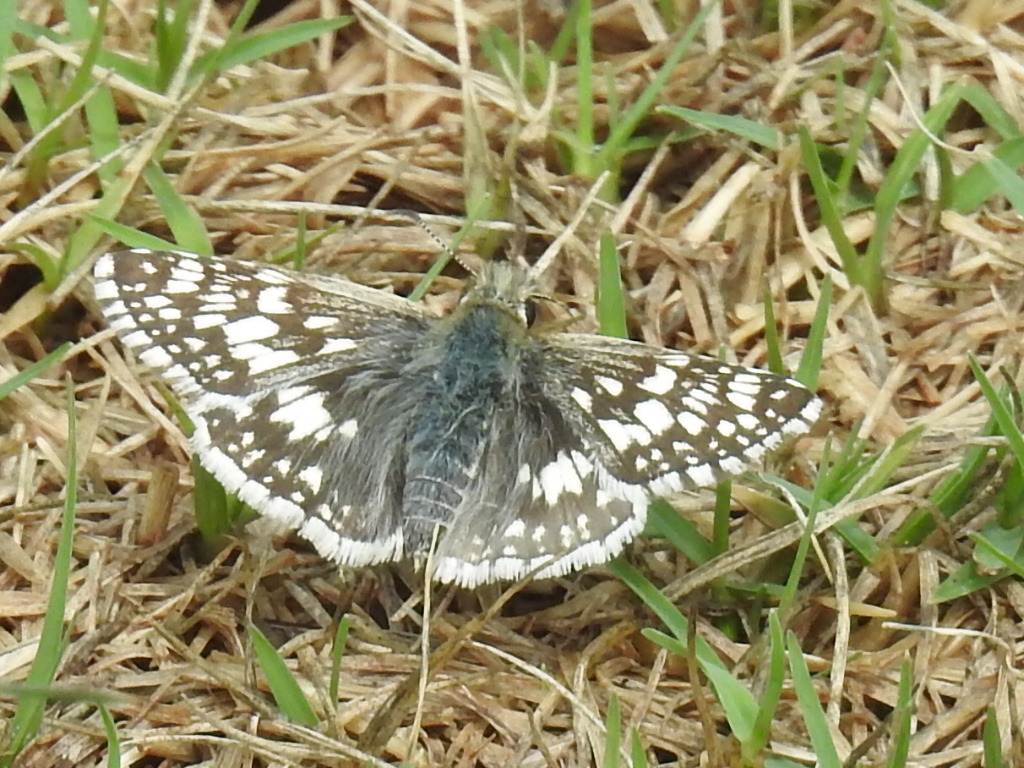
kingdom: Animalia
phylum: Arthropoda
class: Insecta
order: Lepidoptera
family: Hesperiidae
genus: Burnsius
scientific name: Burnsius
